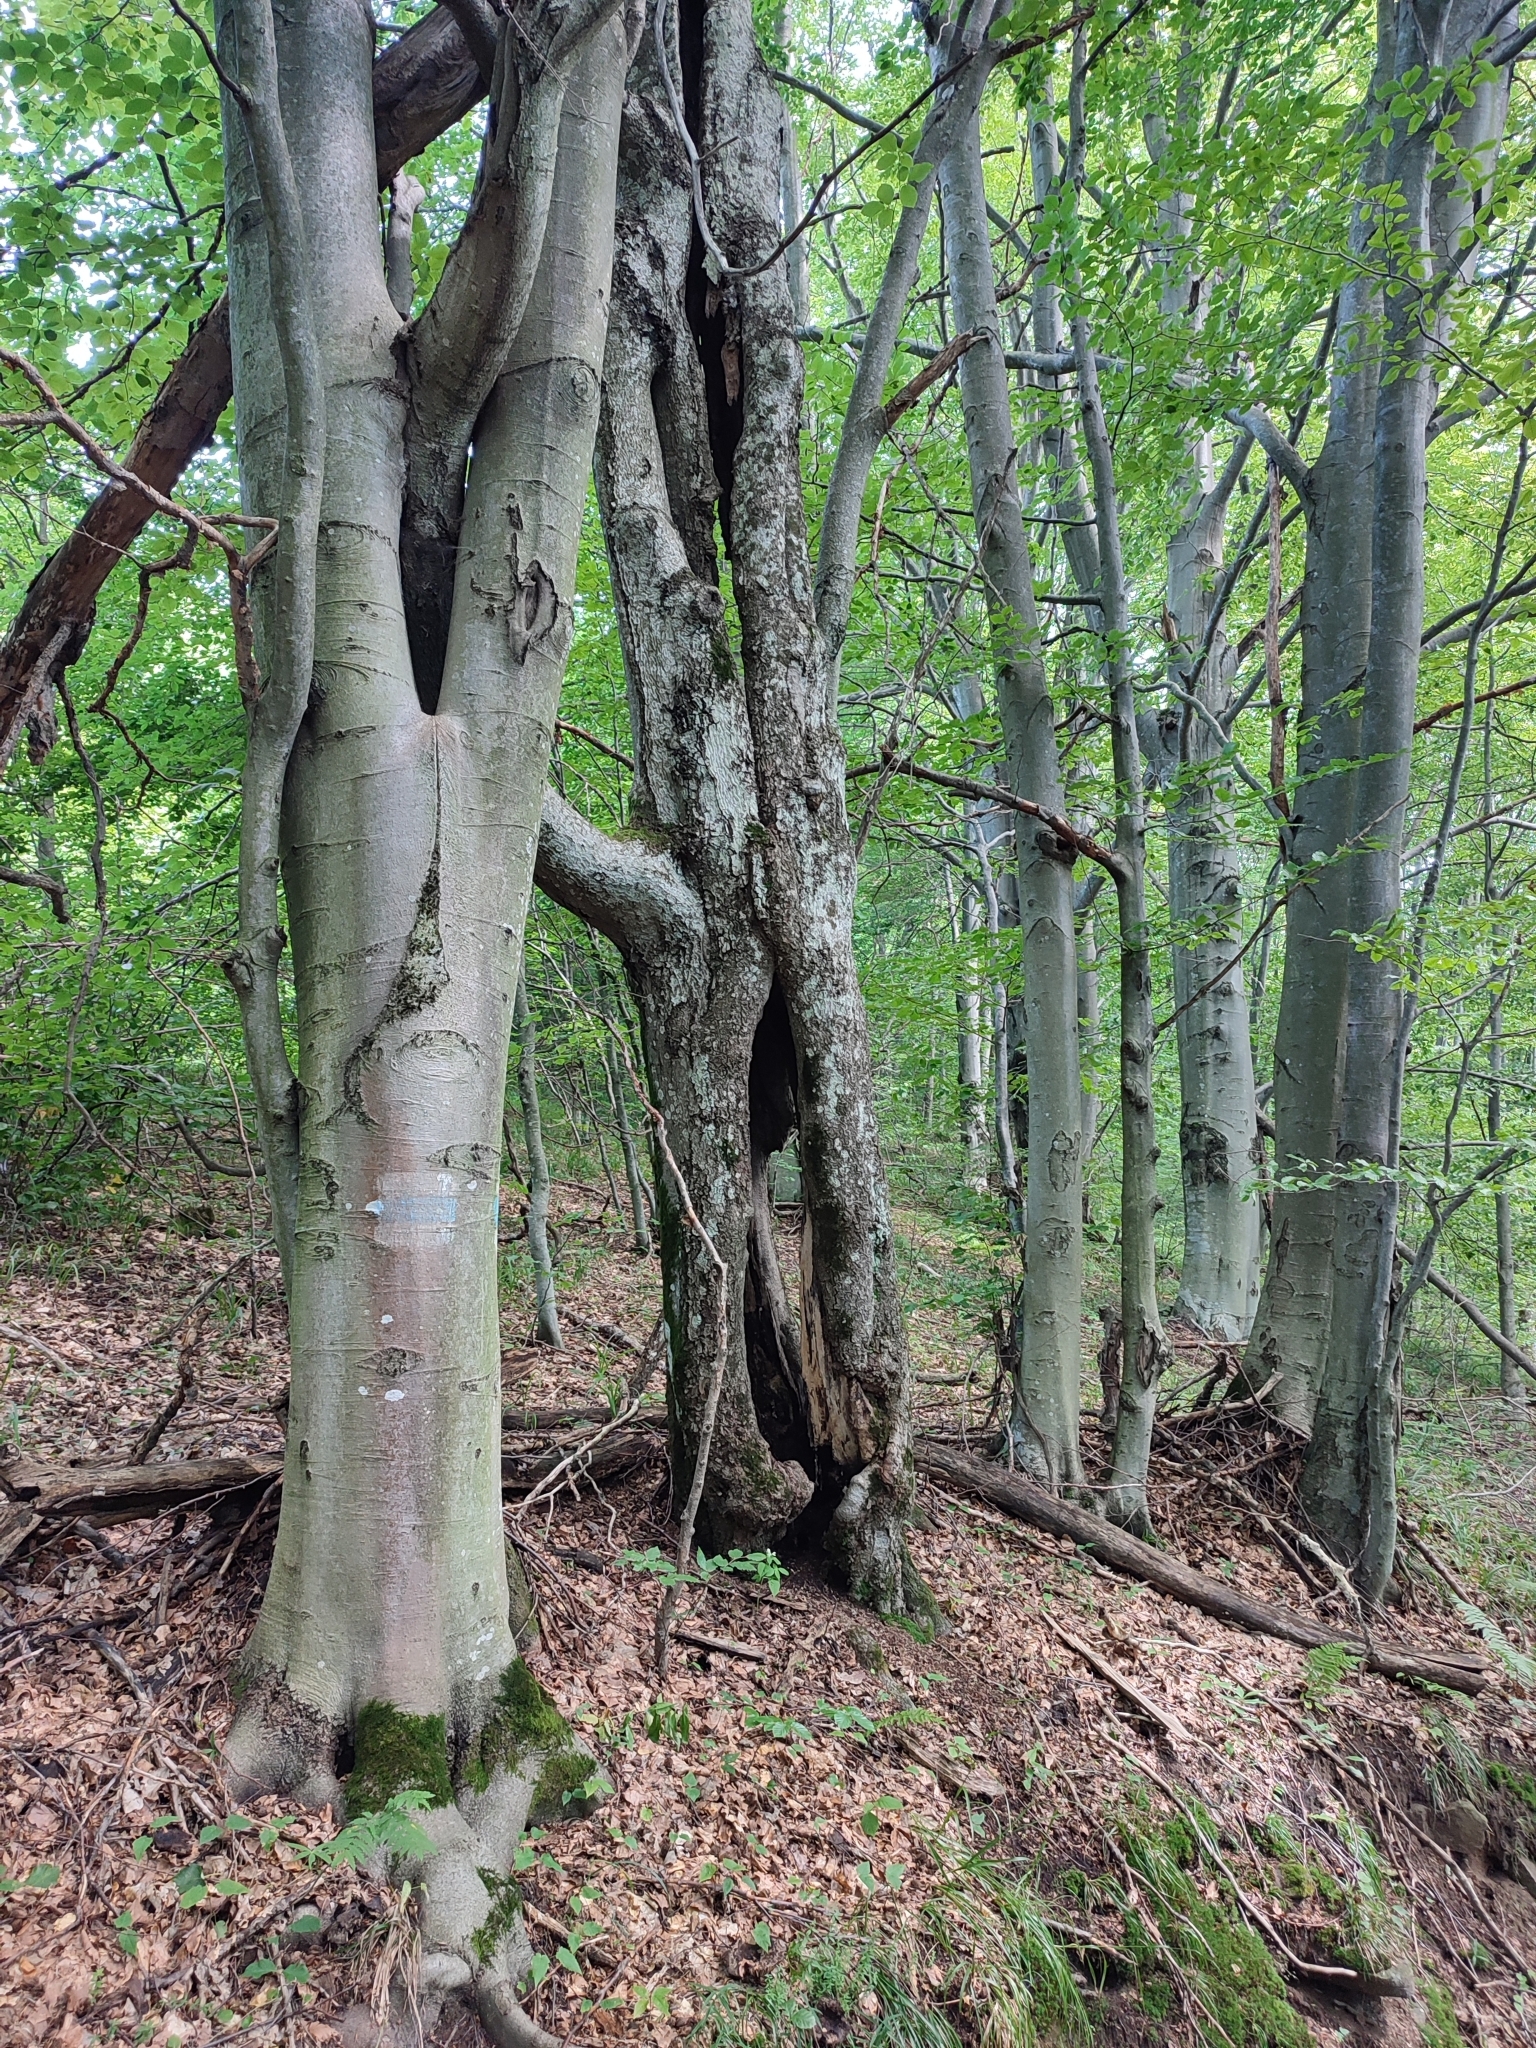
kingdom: Plantae
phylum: Tracheophyta
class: Magnoliopsida
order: Fagales
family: Fagaceae
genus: Fagus
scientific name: Fagus sylvatica
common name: Beech
